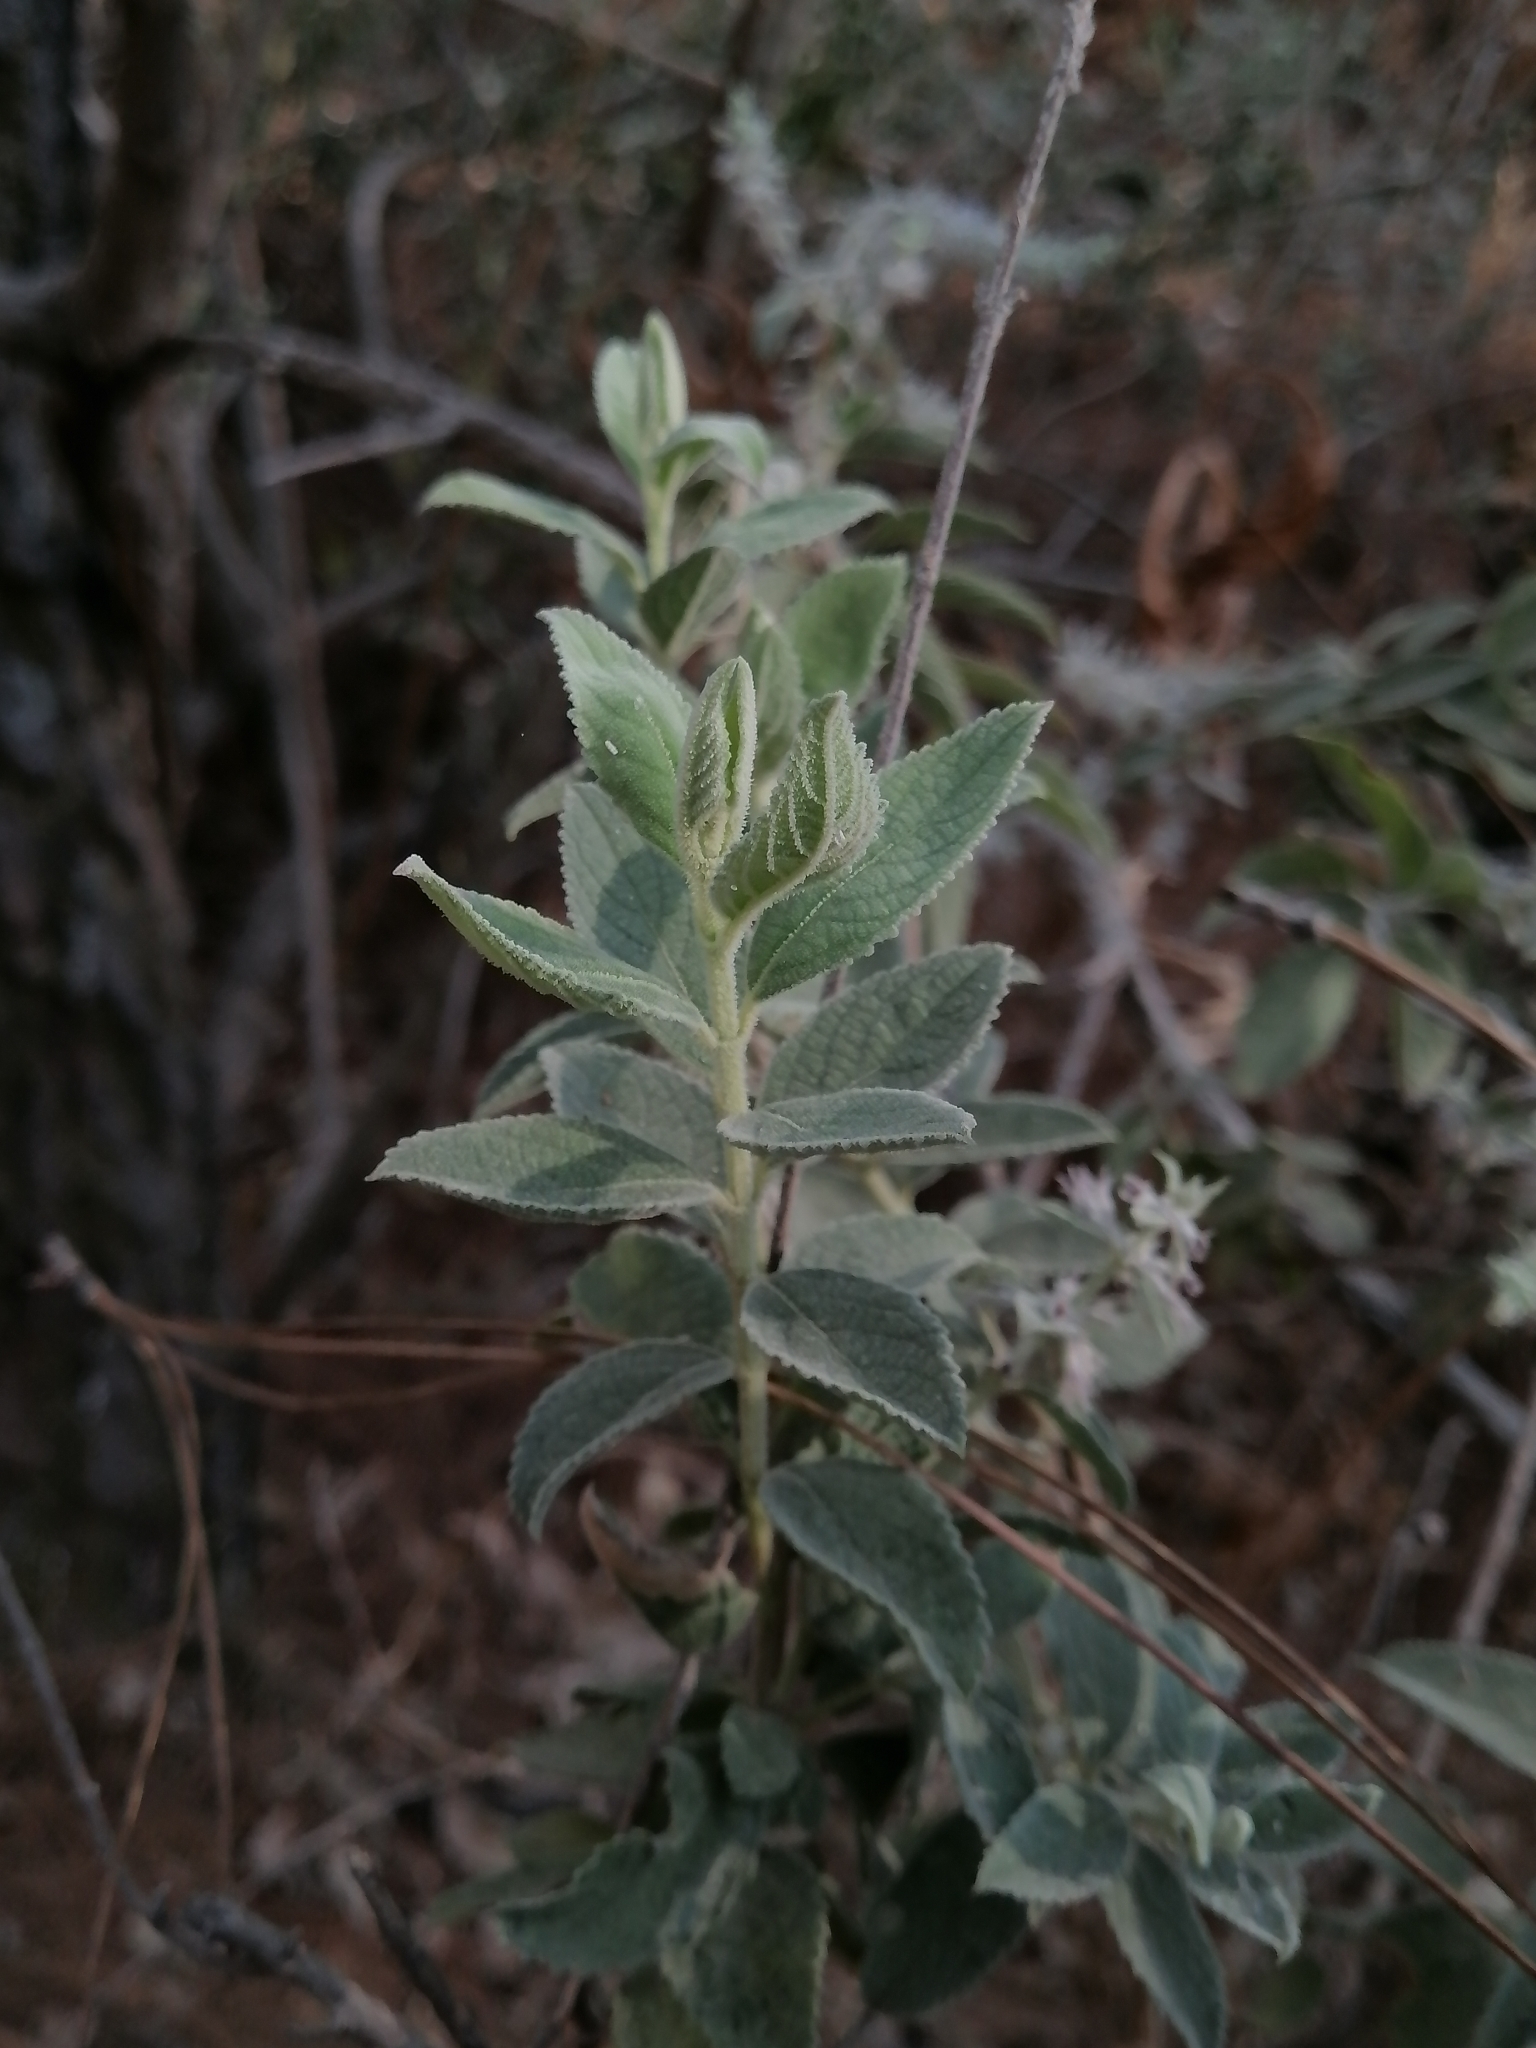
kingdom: Plantae
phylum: Tracheophyta
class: Magnoliopsida
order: Lamiales
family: Lamiaceae
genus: Condea
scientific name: Condea albida
